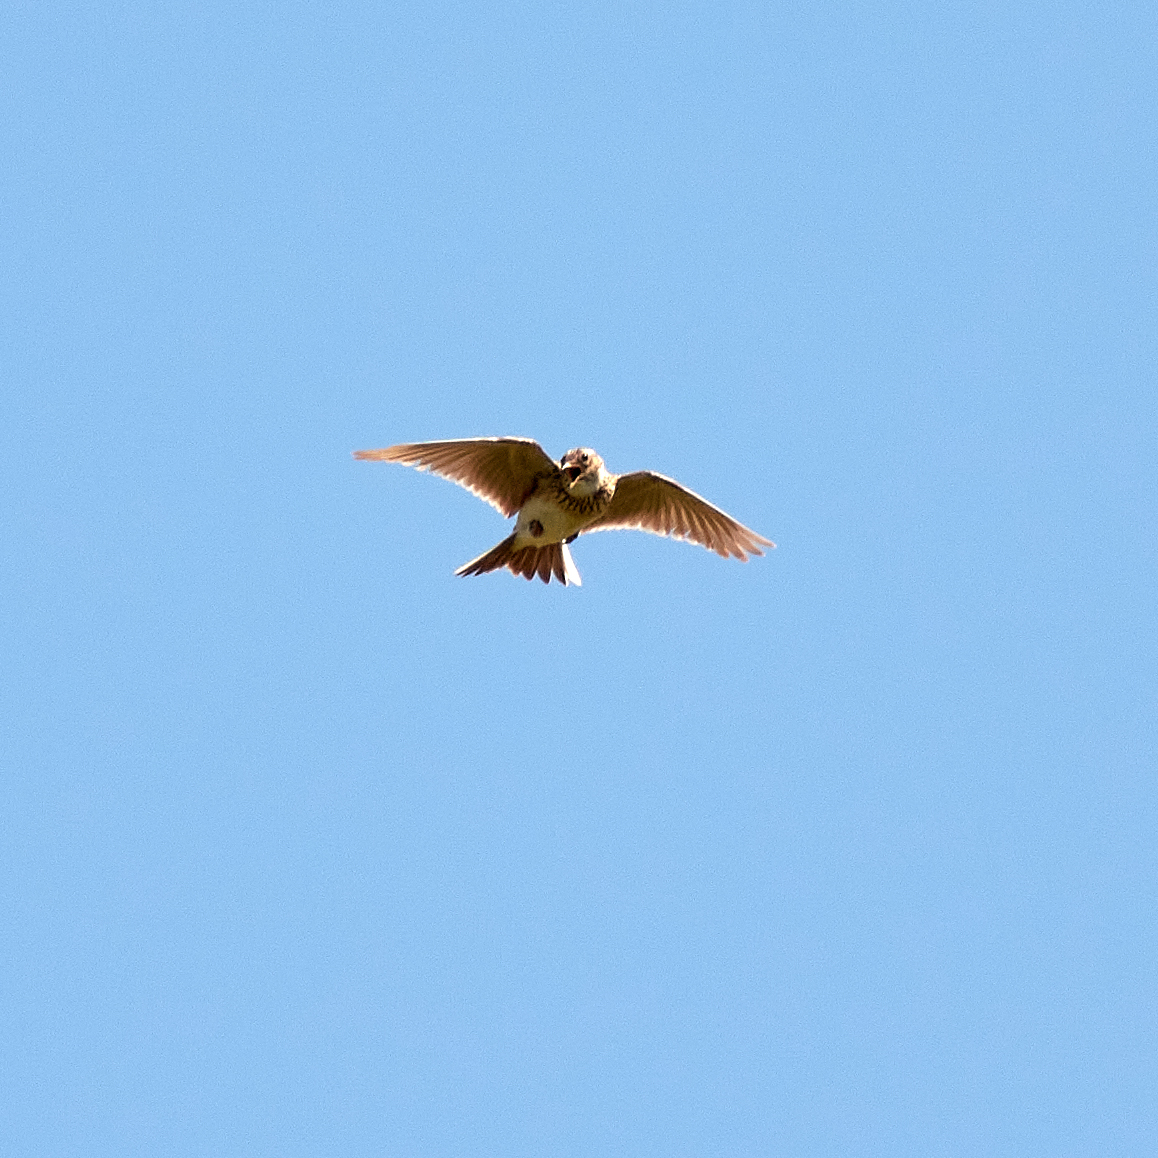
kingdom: Animalia
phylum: Chordata
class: Aves
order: Passeriformes
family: Alaudidae
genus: Alauda
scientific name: Alauda arvensis
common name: Eurasian skylark
